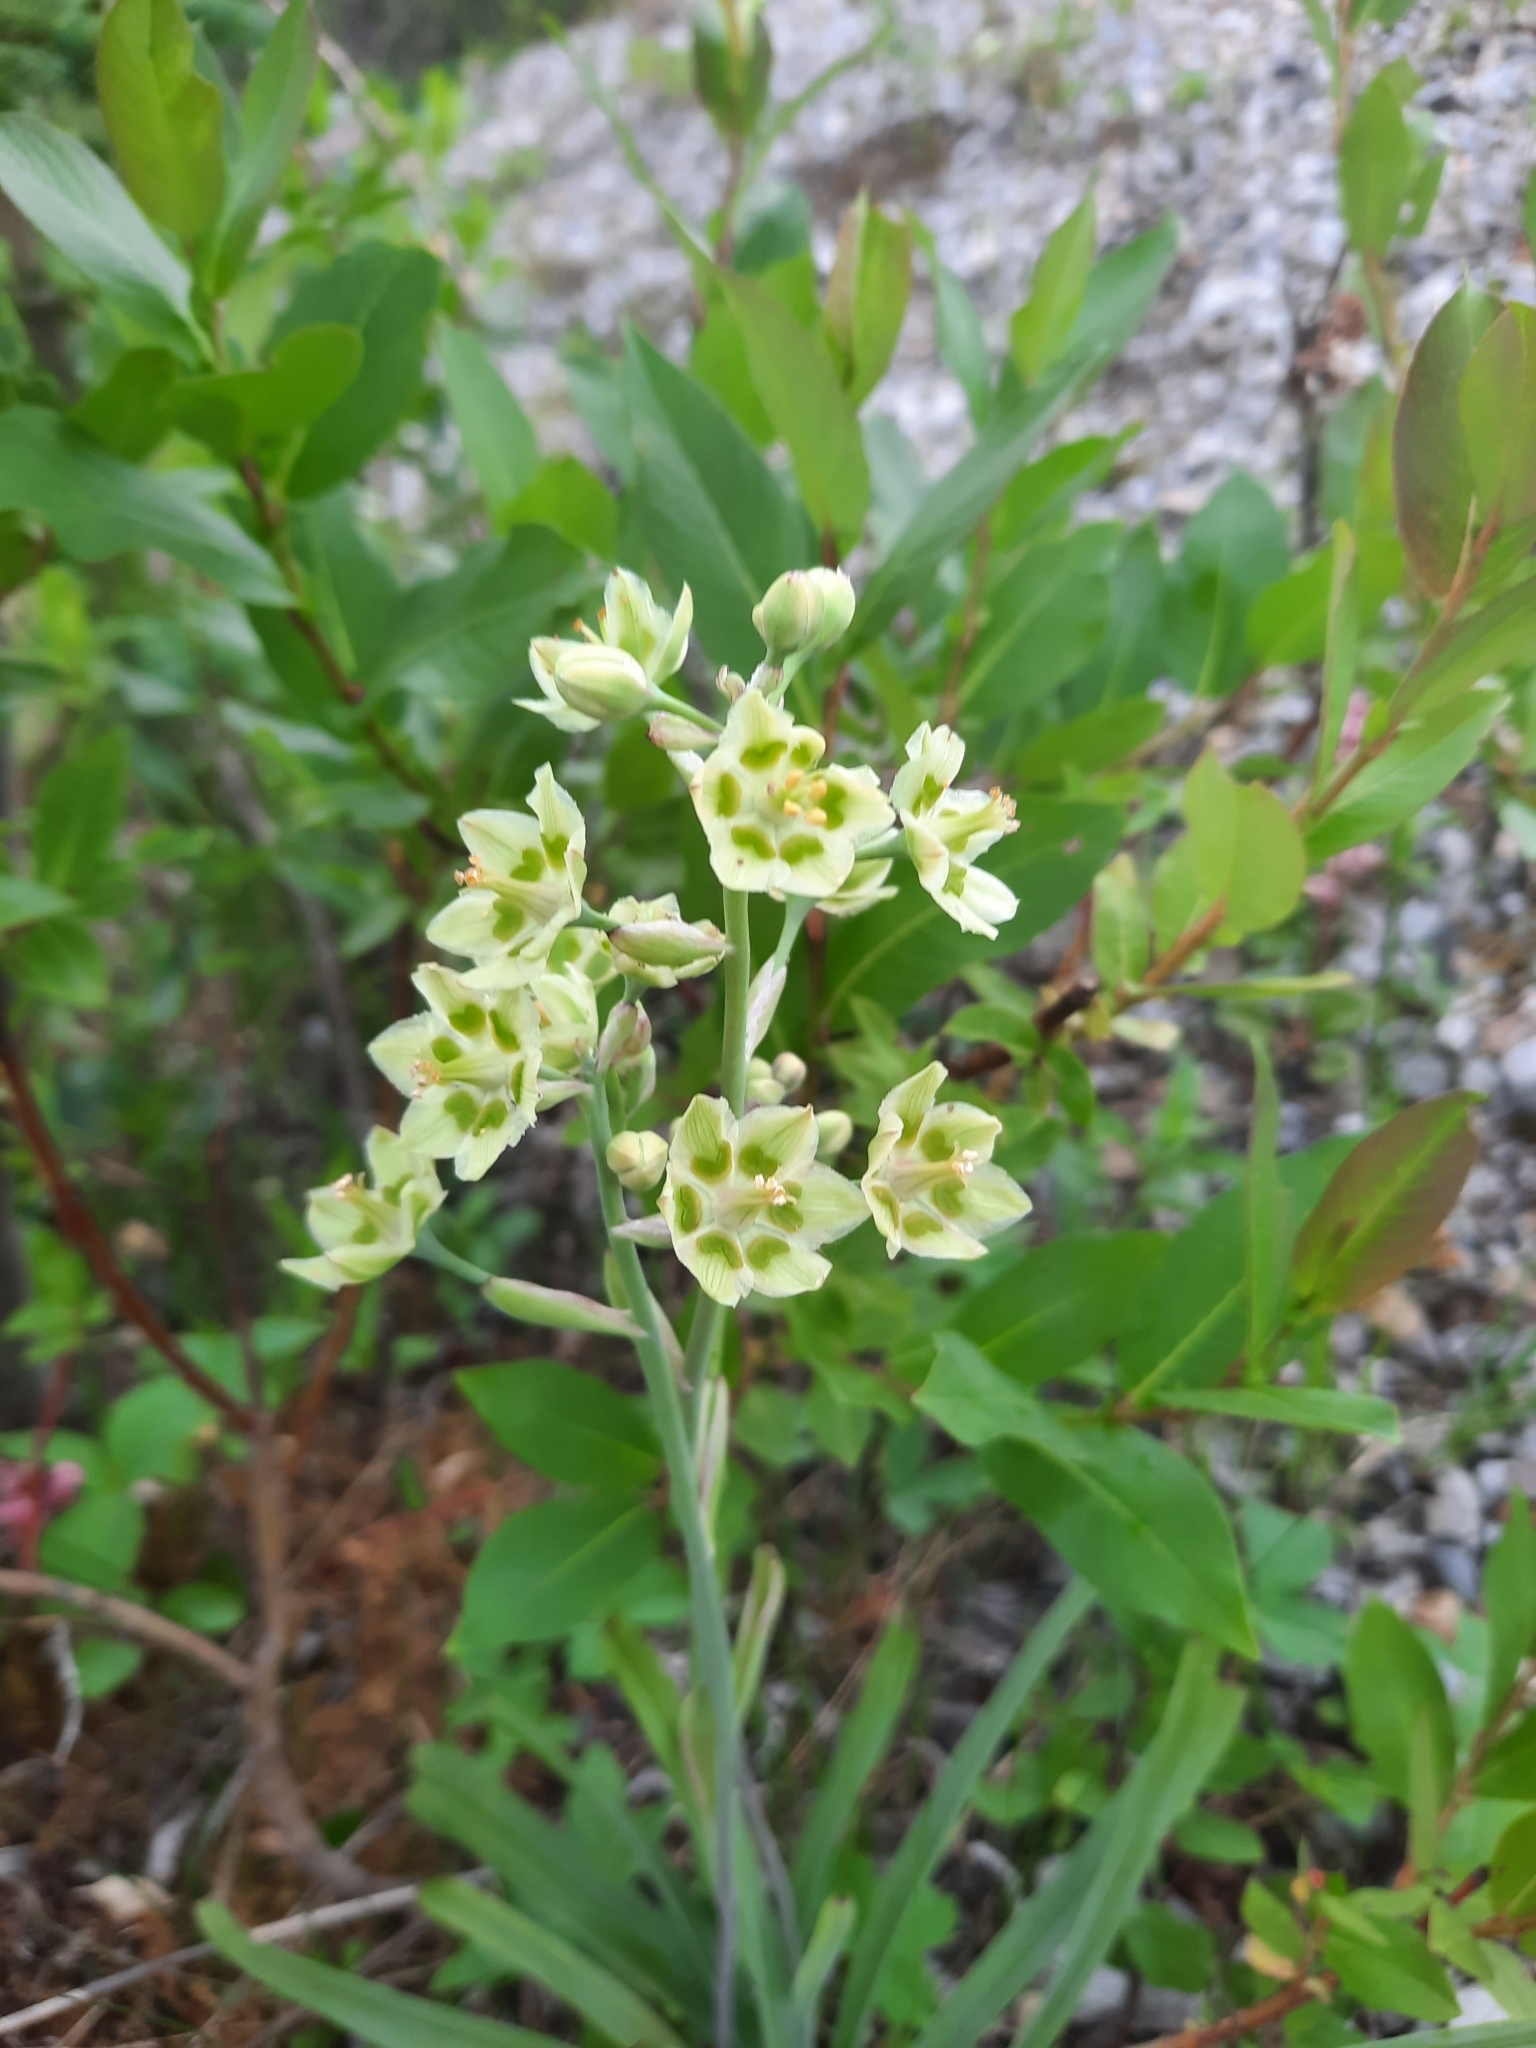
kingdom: Plantae
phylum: Tracheophyta
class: Liliopsida
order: Liliales
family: Melanthiaceae
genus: Anticlea
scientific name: Anticlea elegans
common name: Mountain death camas
